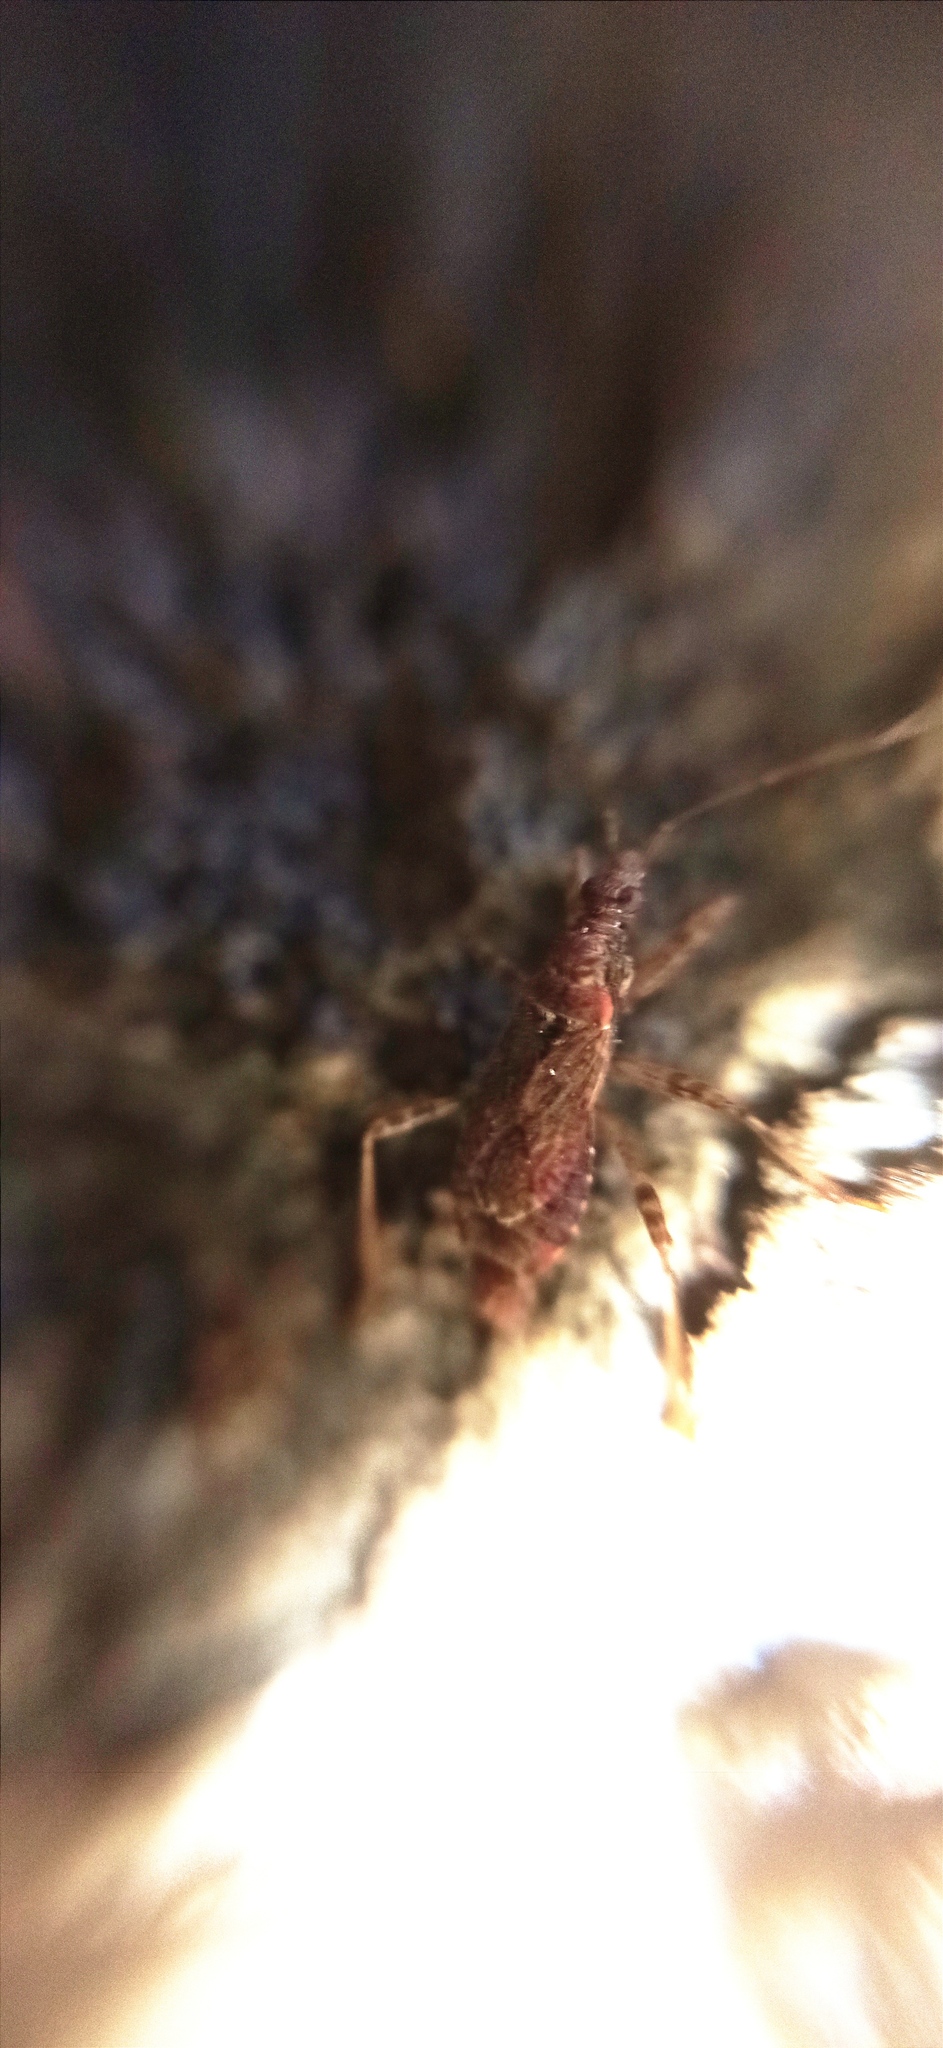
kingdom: Animalia
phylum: Arthropoda
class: Insecta
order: Hemiptera
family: Nabidae
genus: Himacerus
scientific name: Himacerus mirmicoides
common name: Ant damsel bug
